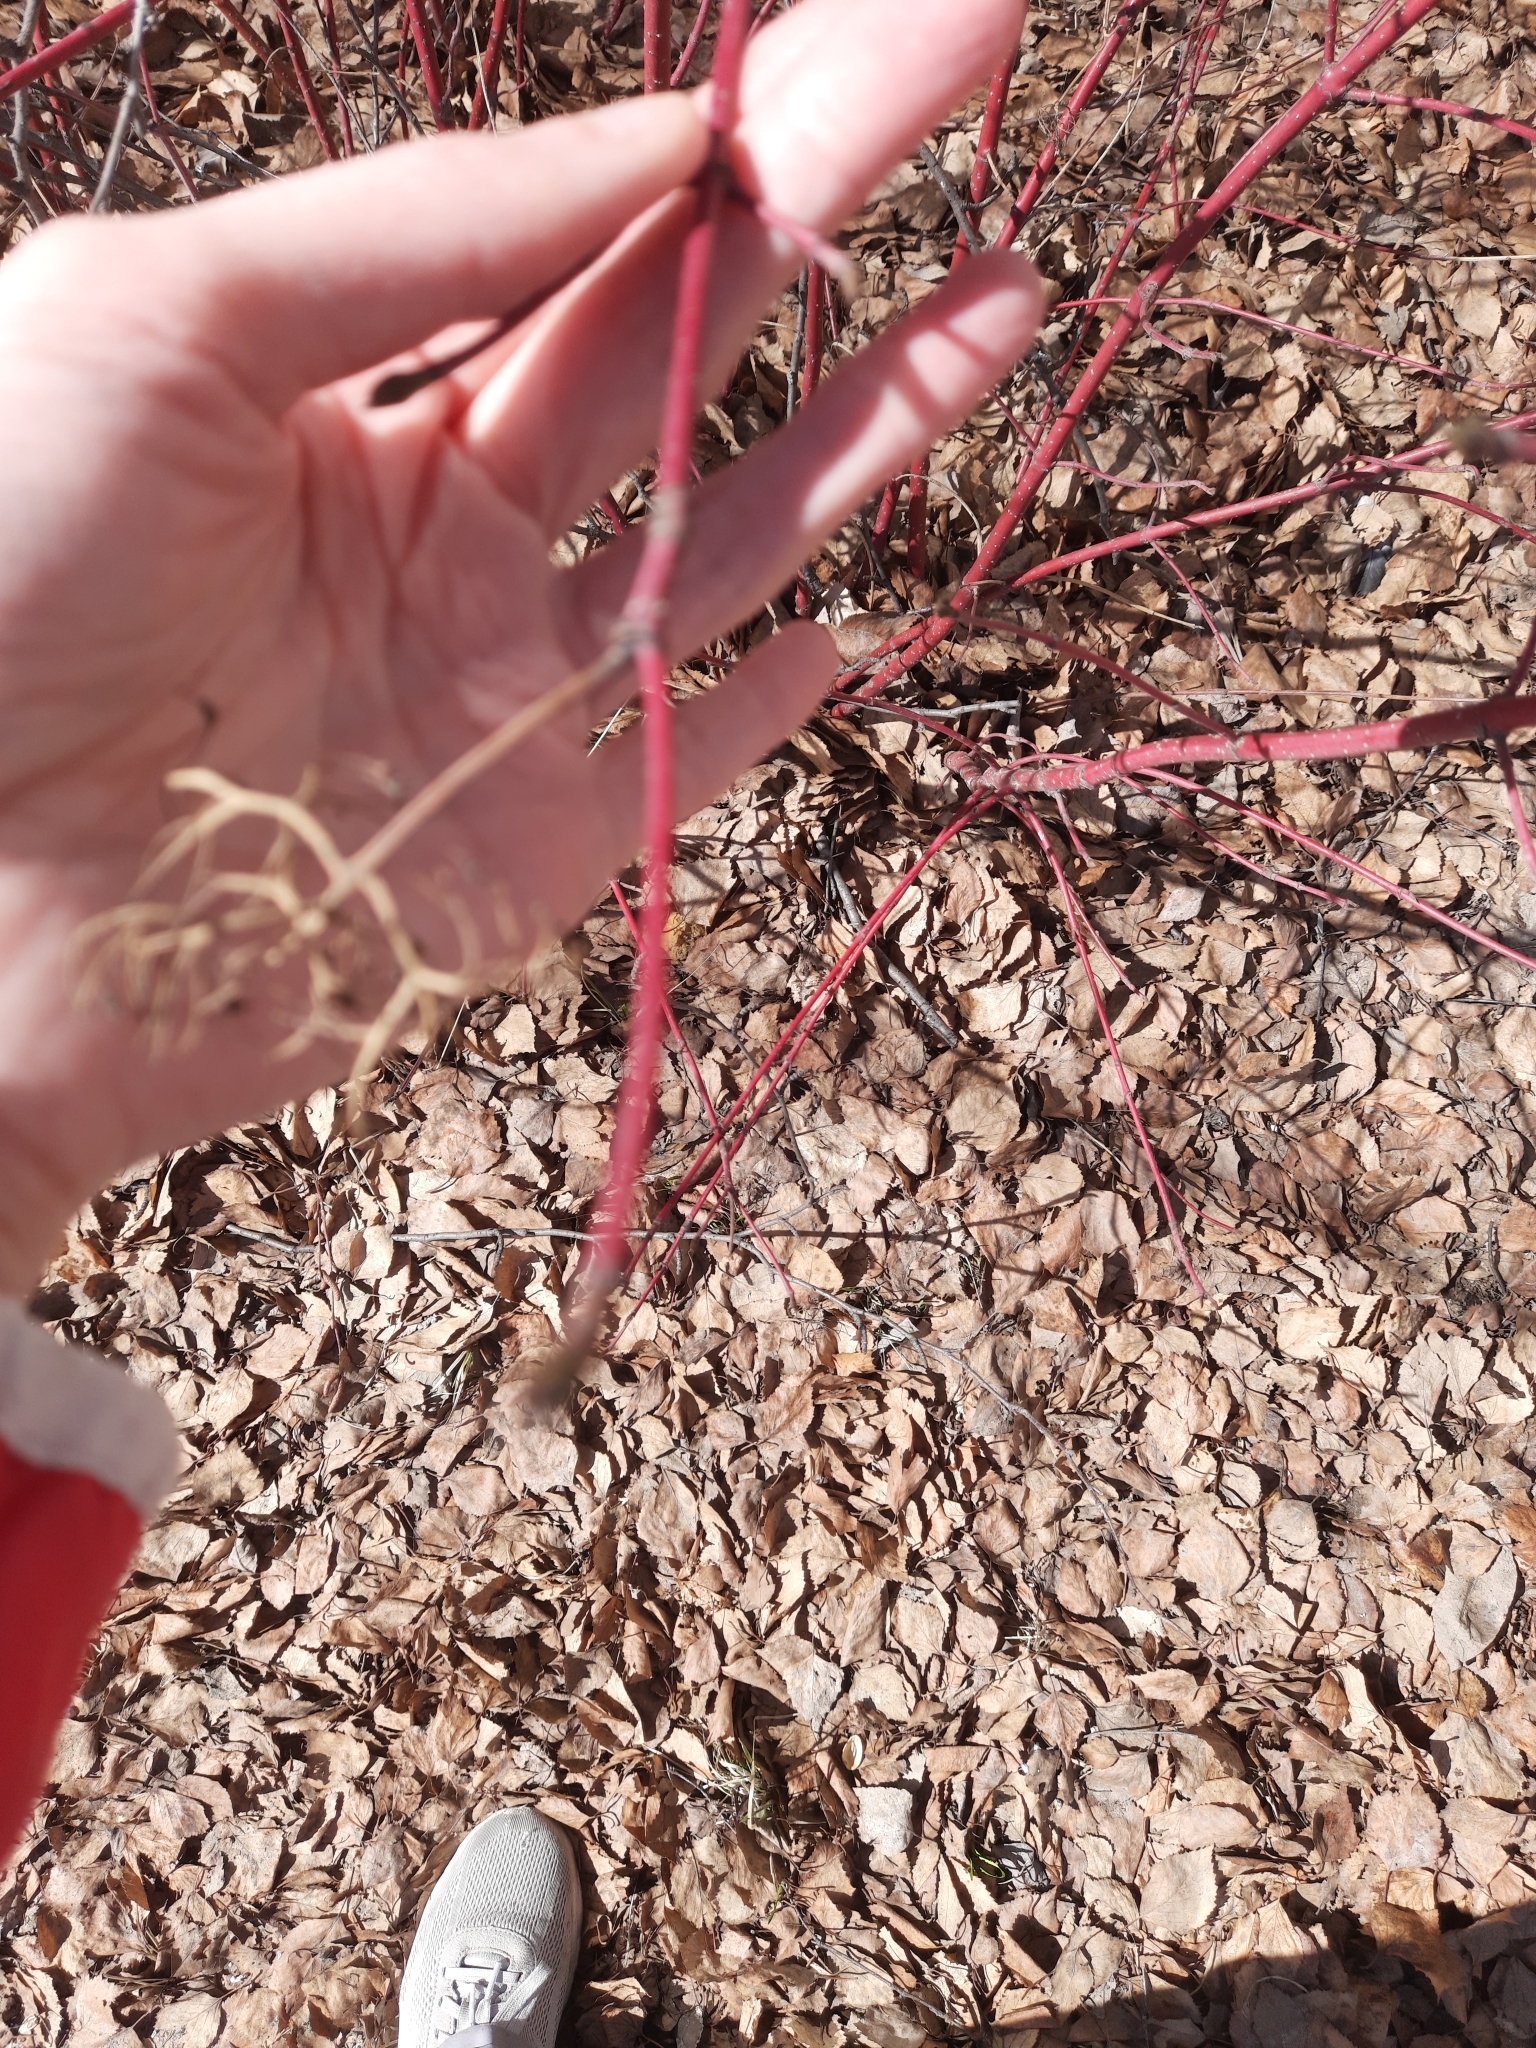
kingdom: Plantae
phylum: Tracheophyta
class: Magnoliopsida
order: Cornales
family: Cornaceae
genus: Cornus
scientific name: Cornus alba
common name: White dogwood
